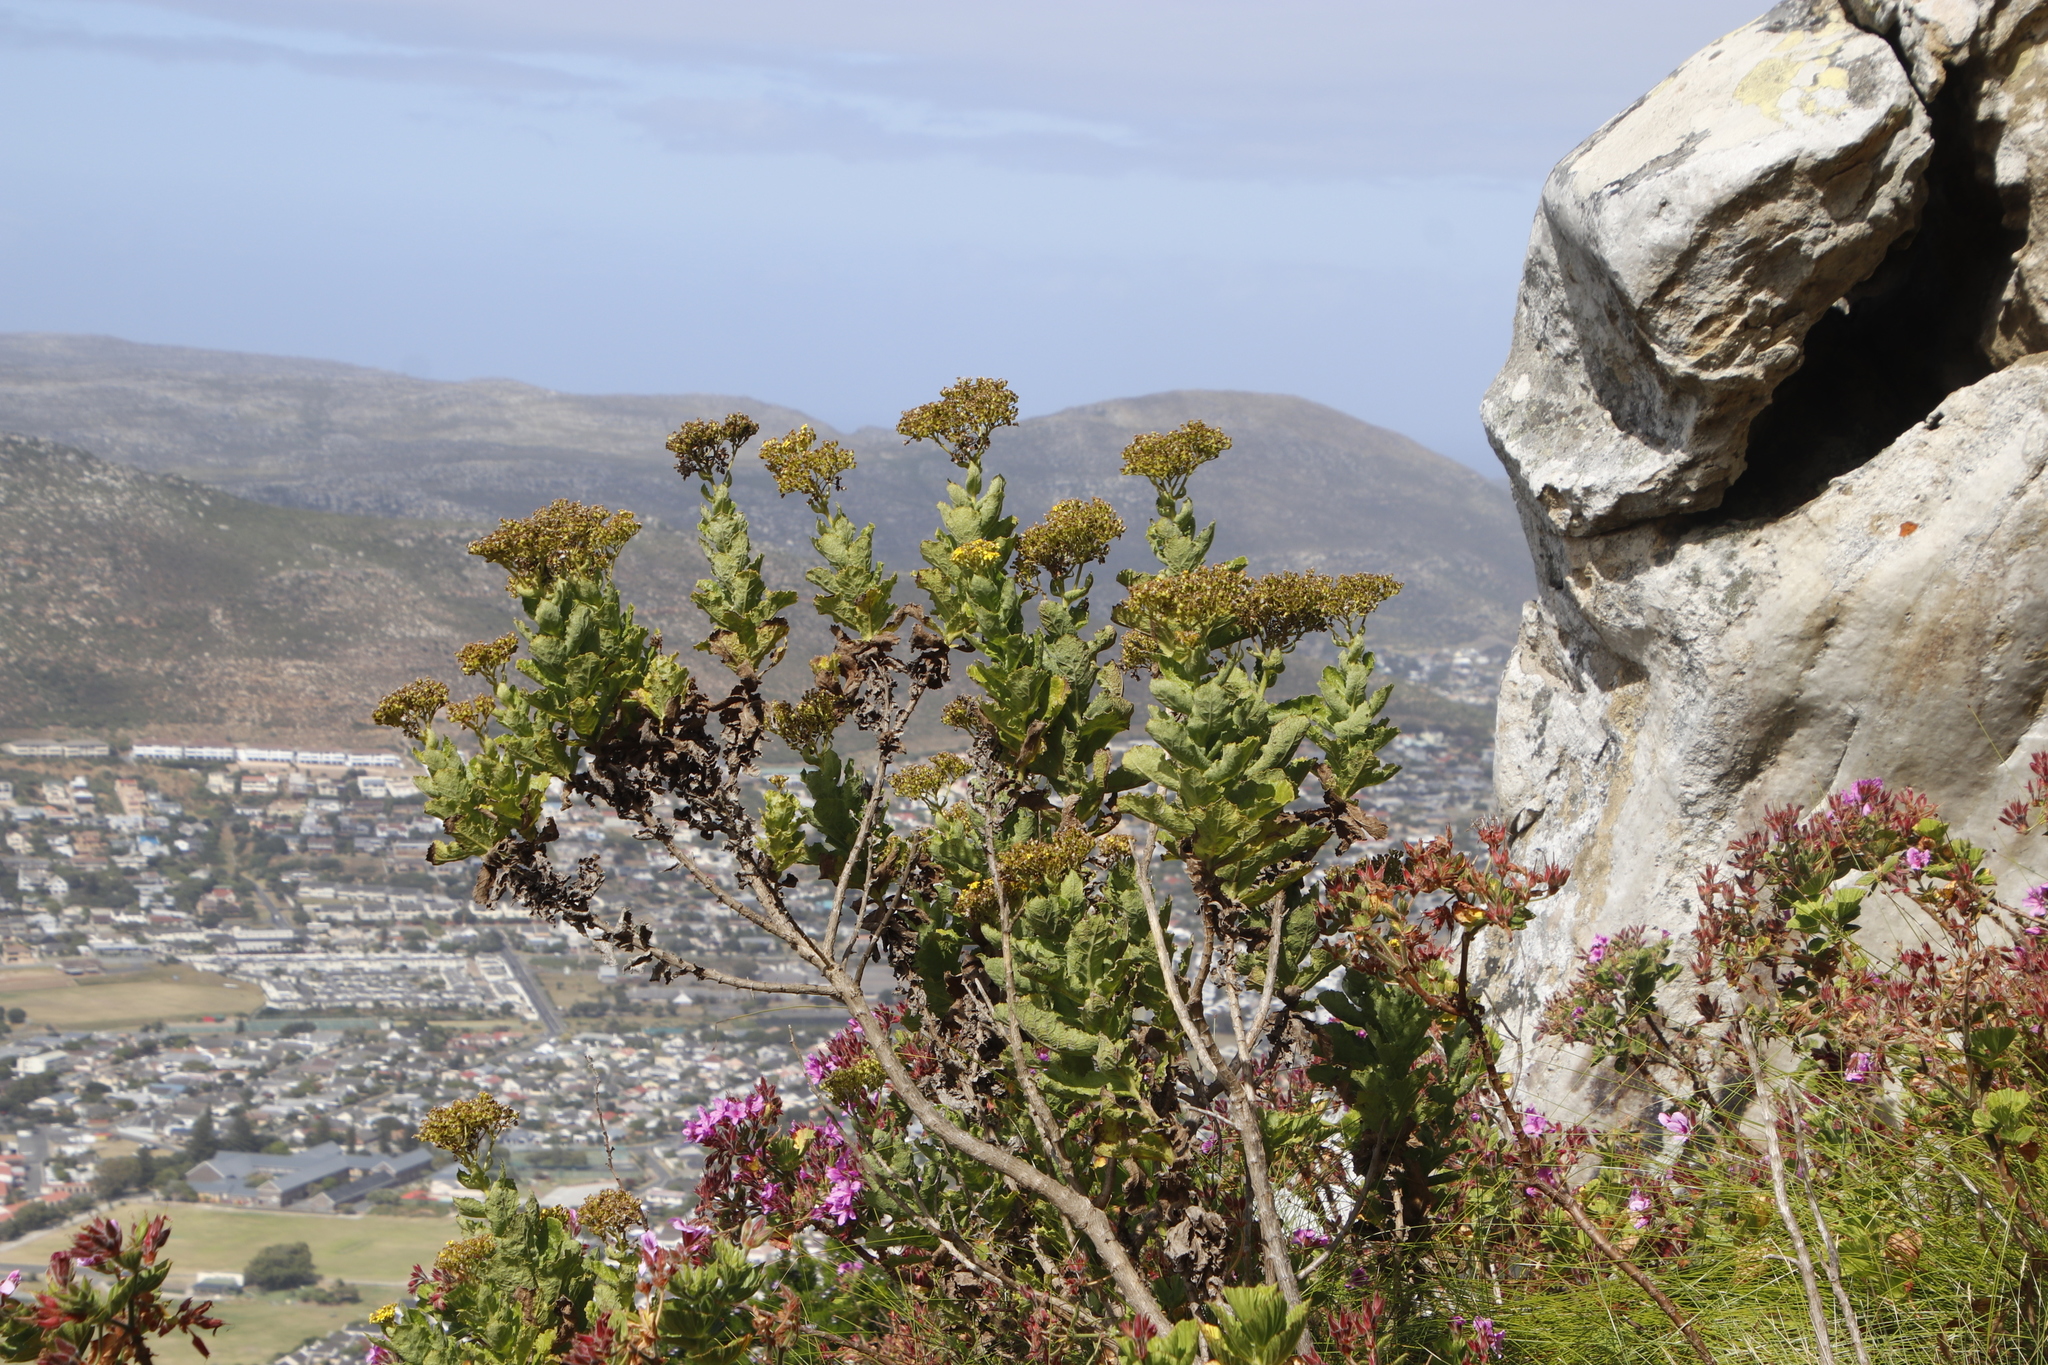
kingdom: Plantae
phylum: Tracheophyta
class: Magnoliopsida
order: Asterales
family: Asteraceae
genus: Senecio
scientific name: Senecio rigidus
